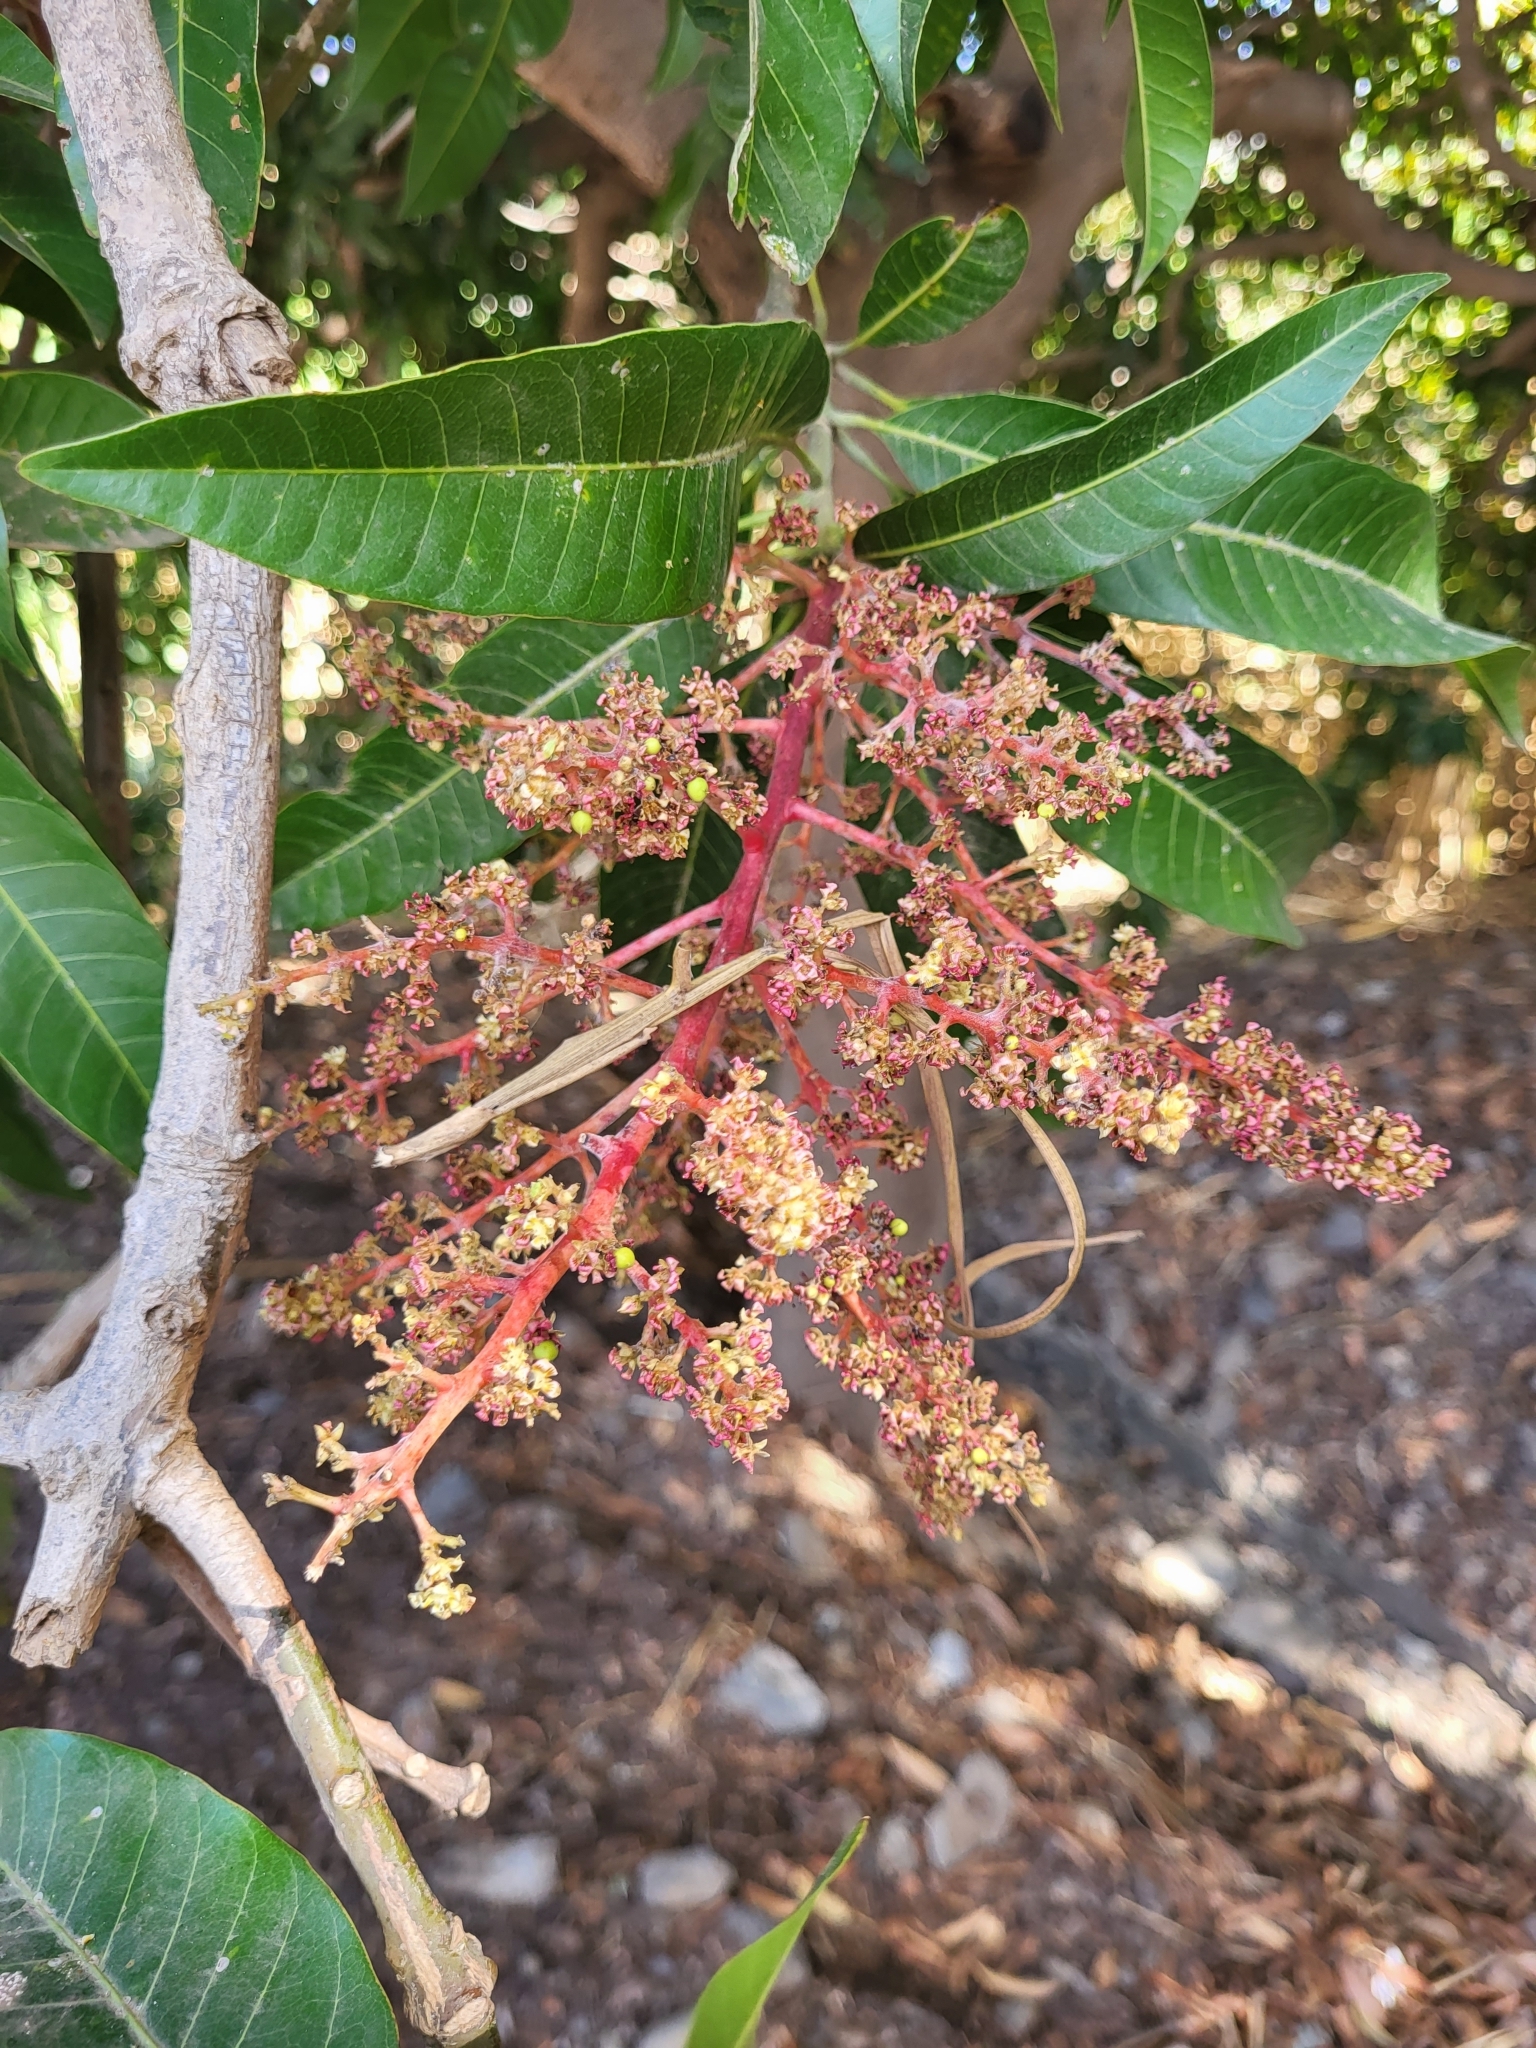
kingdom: Plantae
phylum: Tracheophyta
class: Magnoliopsida
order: Sapindales
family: Anacardiaceae
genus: Mangifera
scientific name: Mangifera indica
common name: Mango
